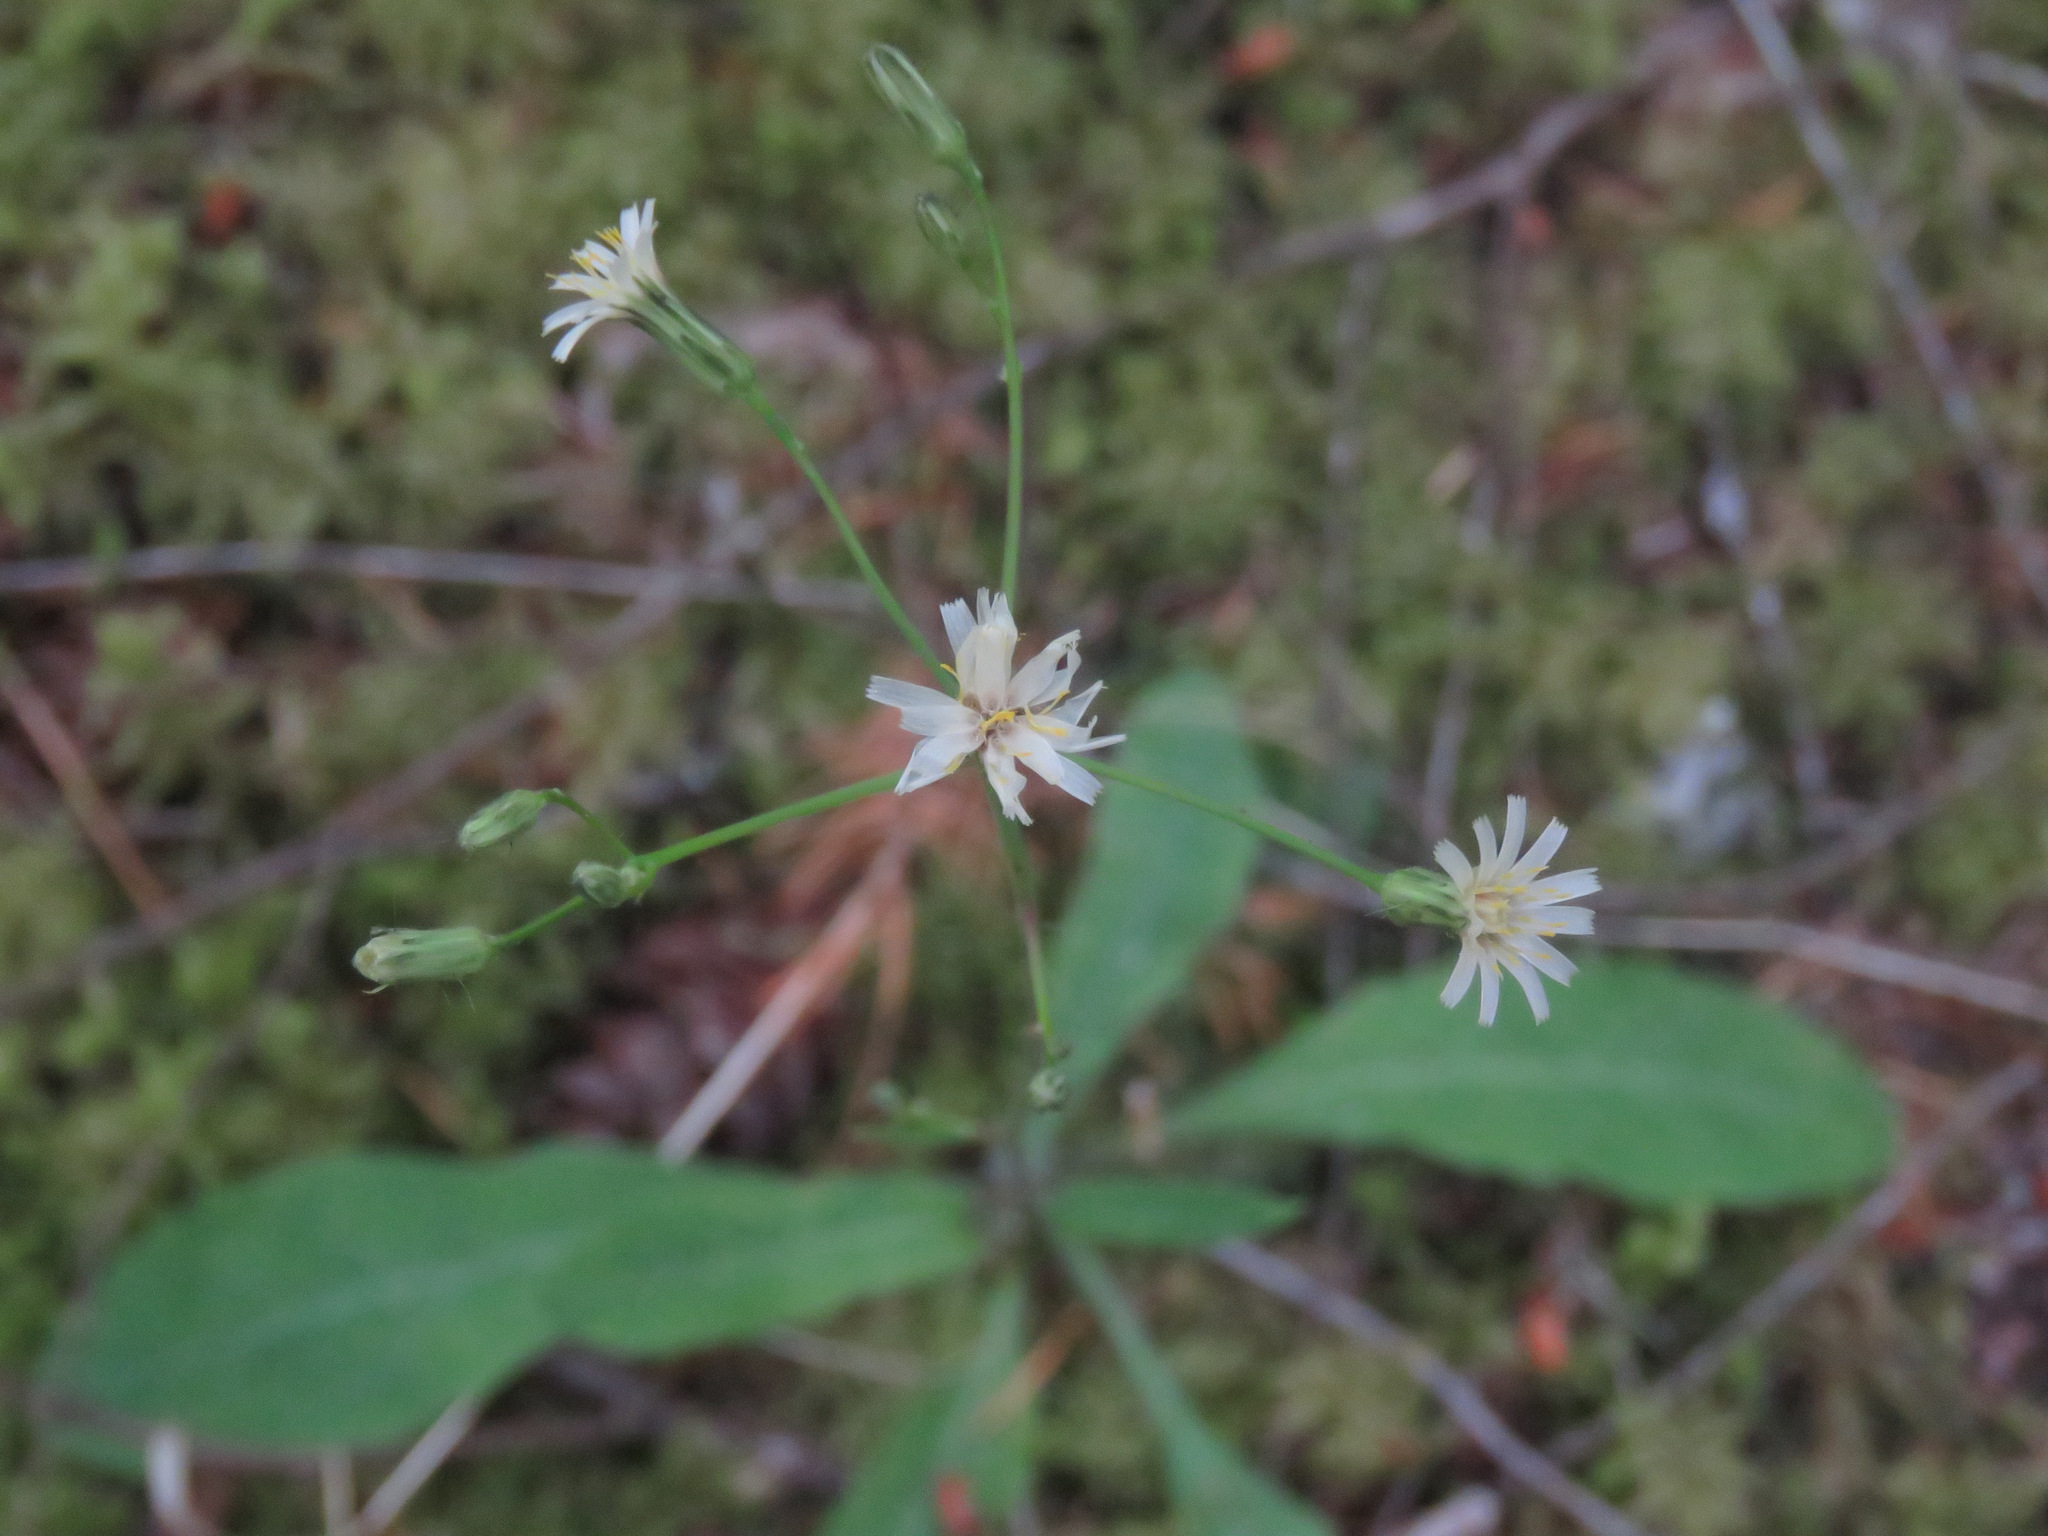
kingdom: Plantae
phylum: Tracheophyta
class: Magnoliopsida
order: Asterales
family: Asteraceae
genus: Hieracium
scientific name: Hieracium albiflorum
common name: White hawkweed
